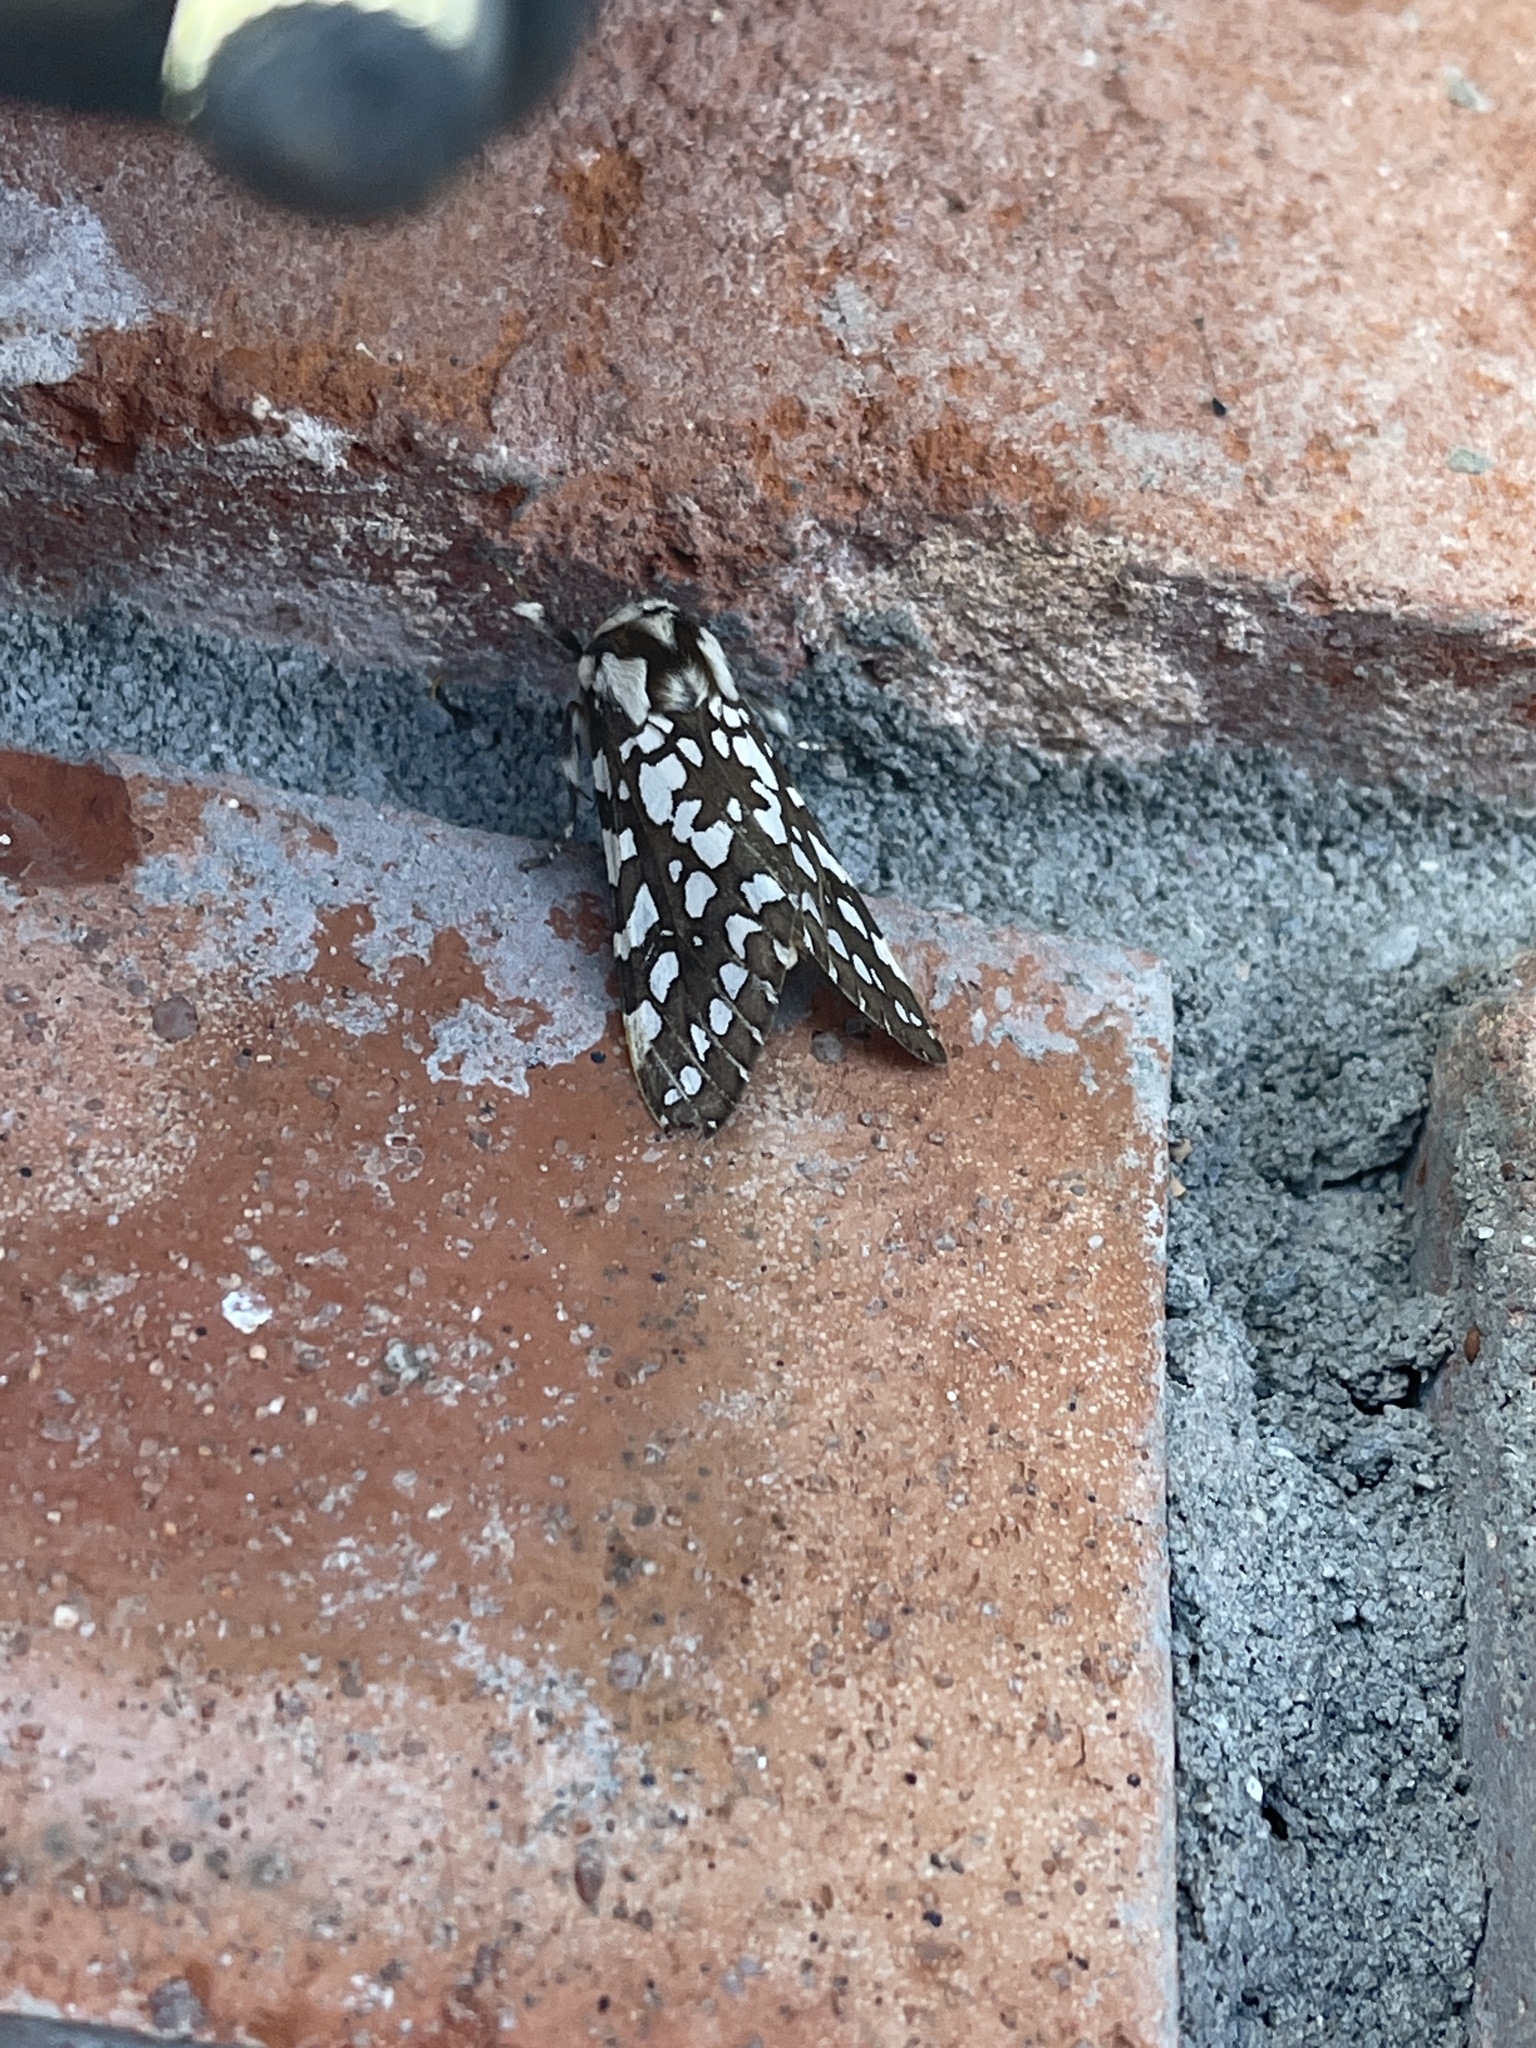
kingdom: Animalia
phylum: Arthropoda
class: Insecta
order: Lepidoptera
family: Erebidae
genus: Lophocampa
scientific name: Lophocampa ingens
